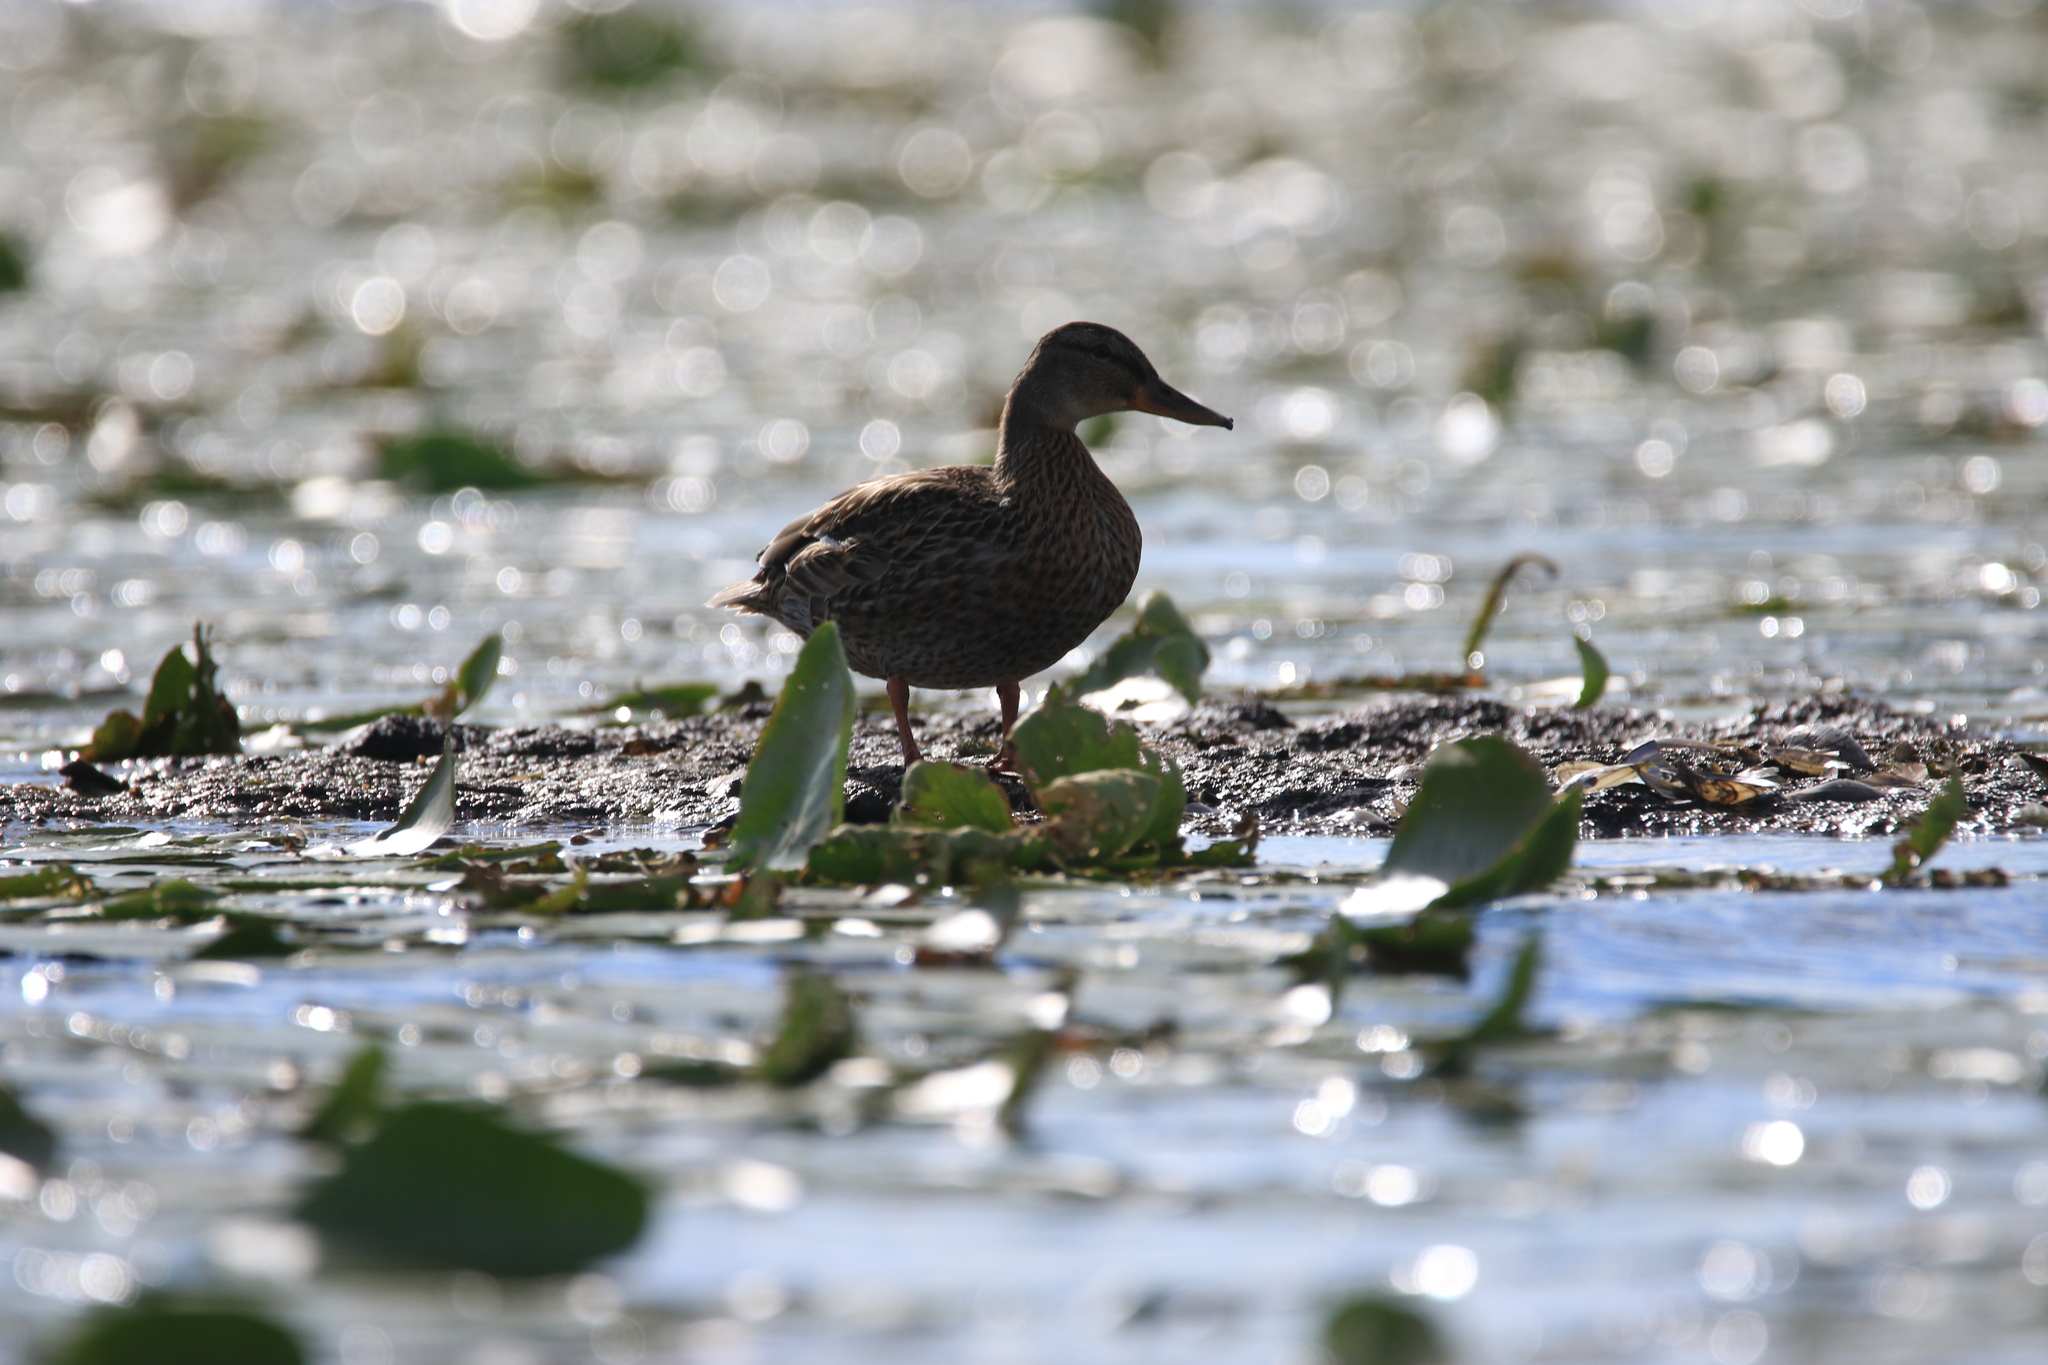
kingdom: Animalia
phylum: Chordata
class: Aves
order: Anseriformes
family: Anatidae
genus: Anas
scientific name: Anas platyrhynchos
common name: Mallard
